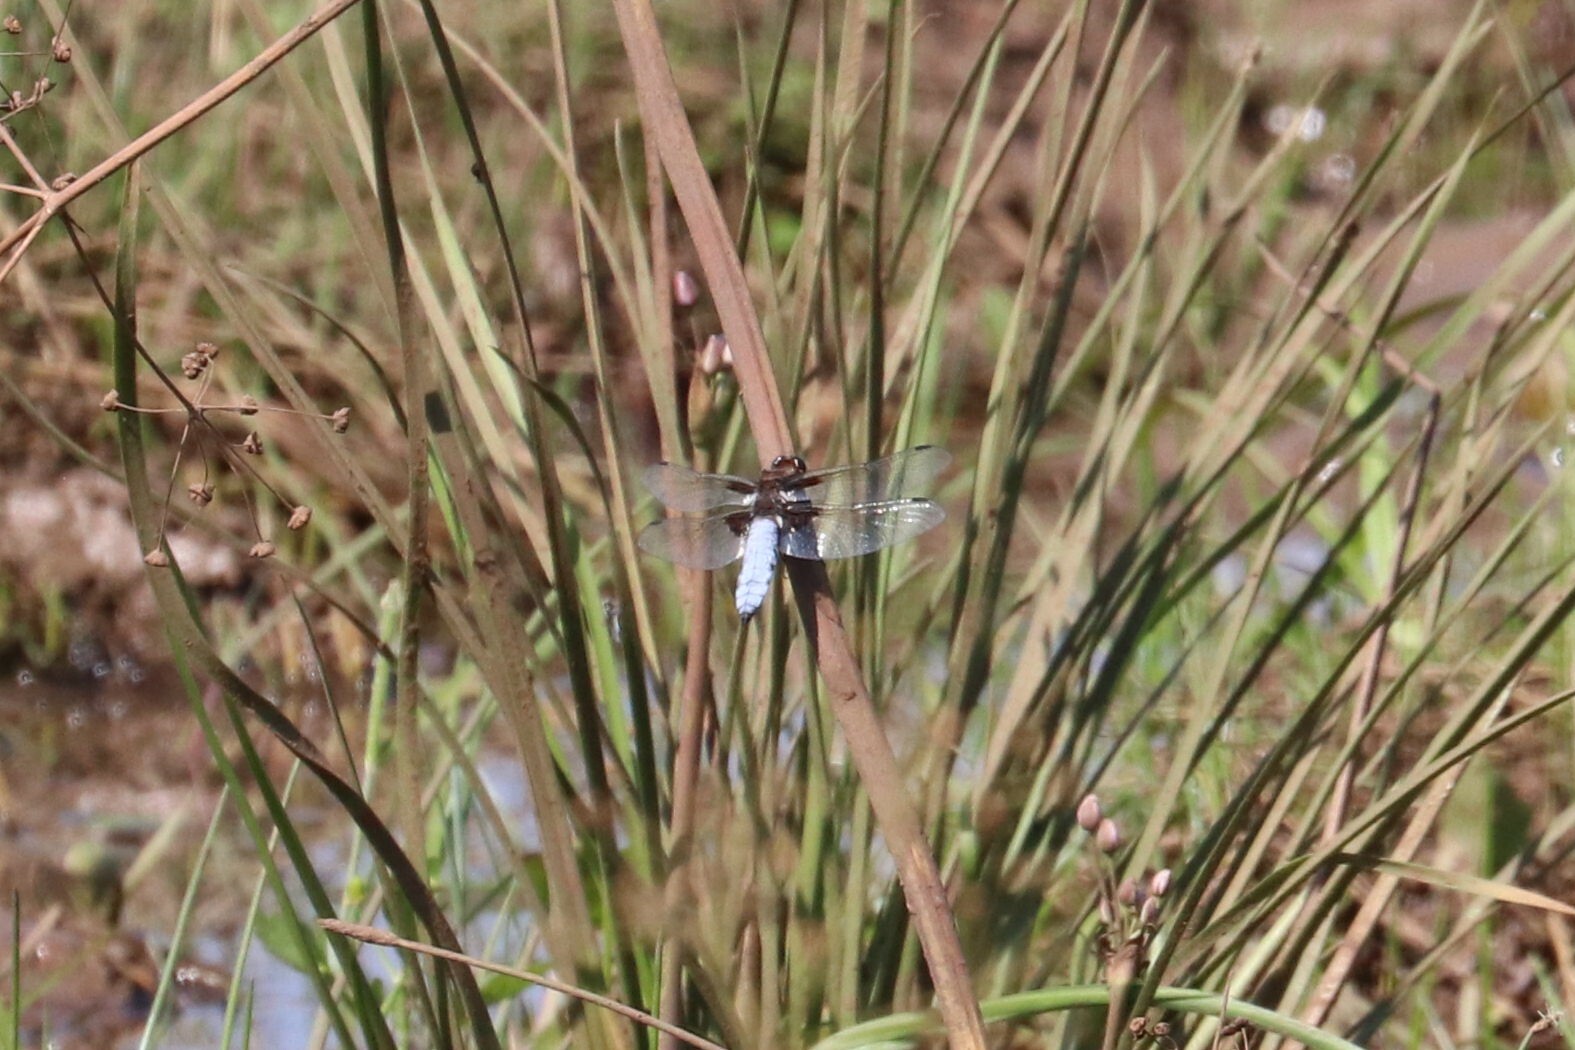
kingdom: Animalia
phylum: Arthropoda
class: Insecta
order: Odonata
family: Libellulidae
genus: Libellula
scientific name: Libellula depressa
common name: Broad-bodied chaser
